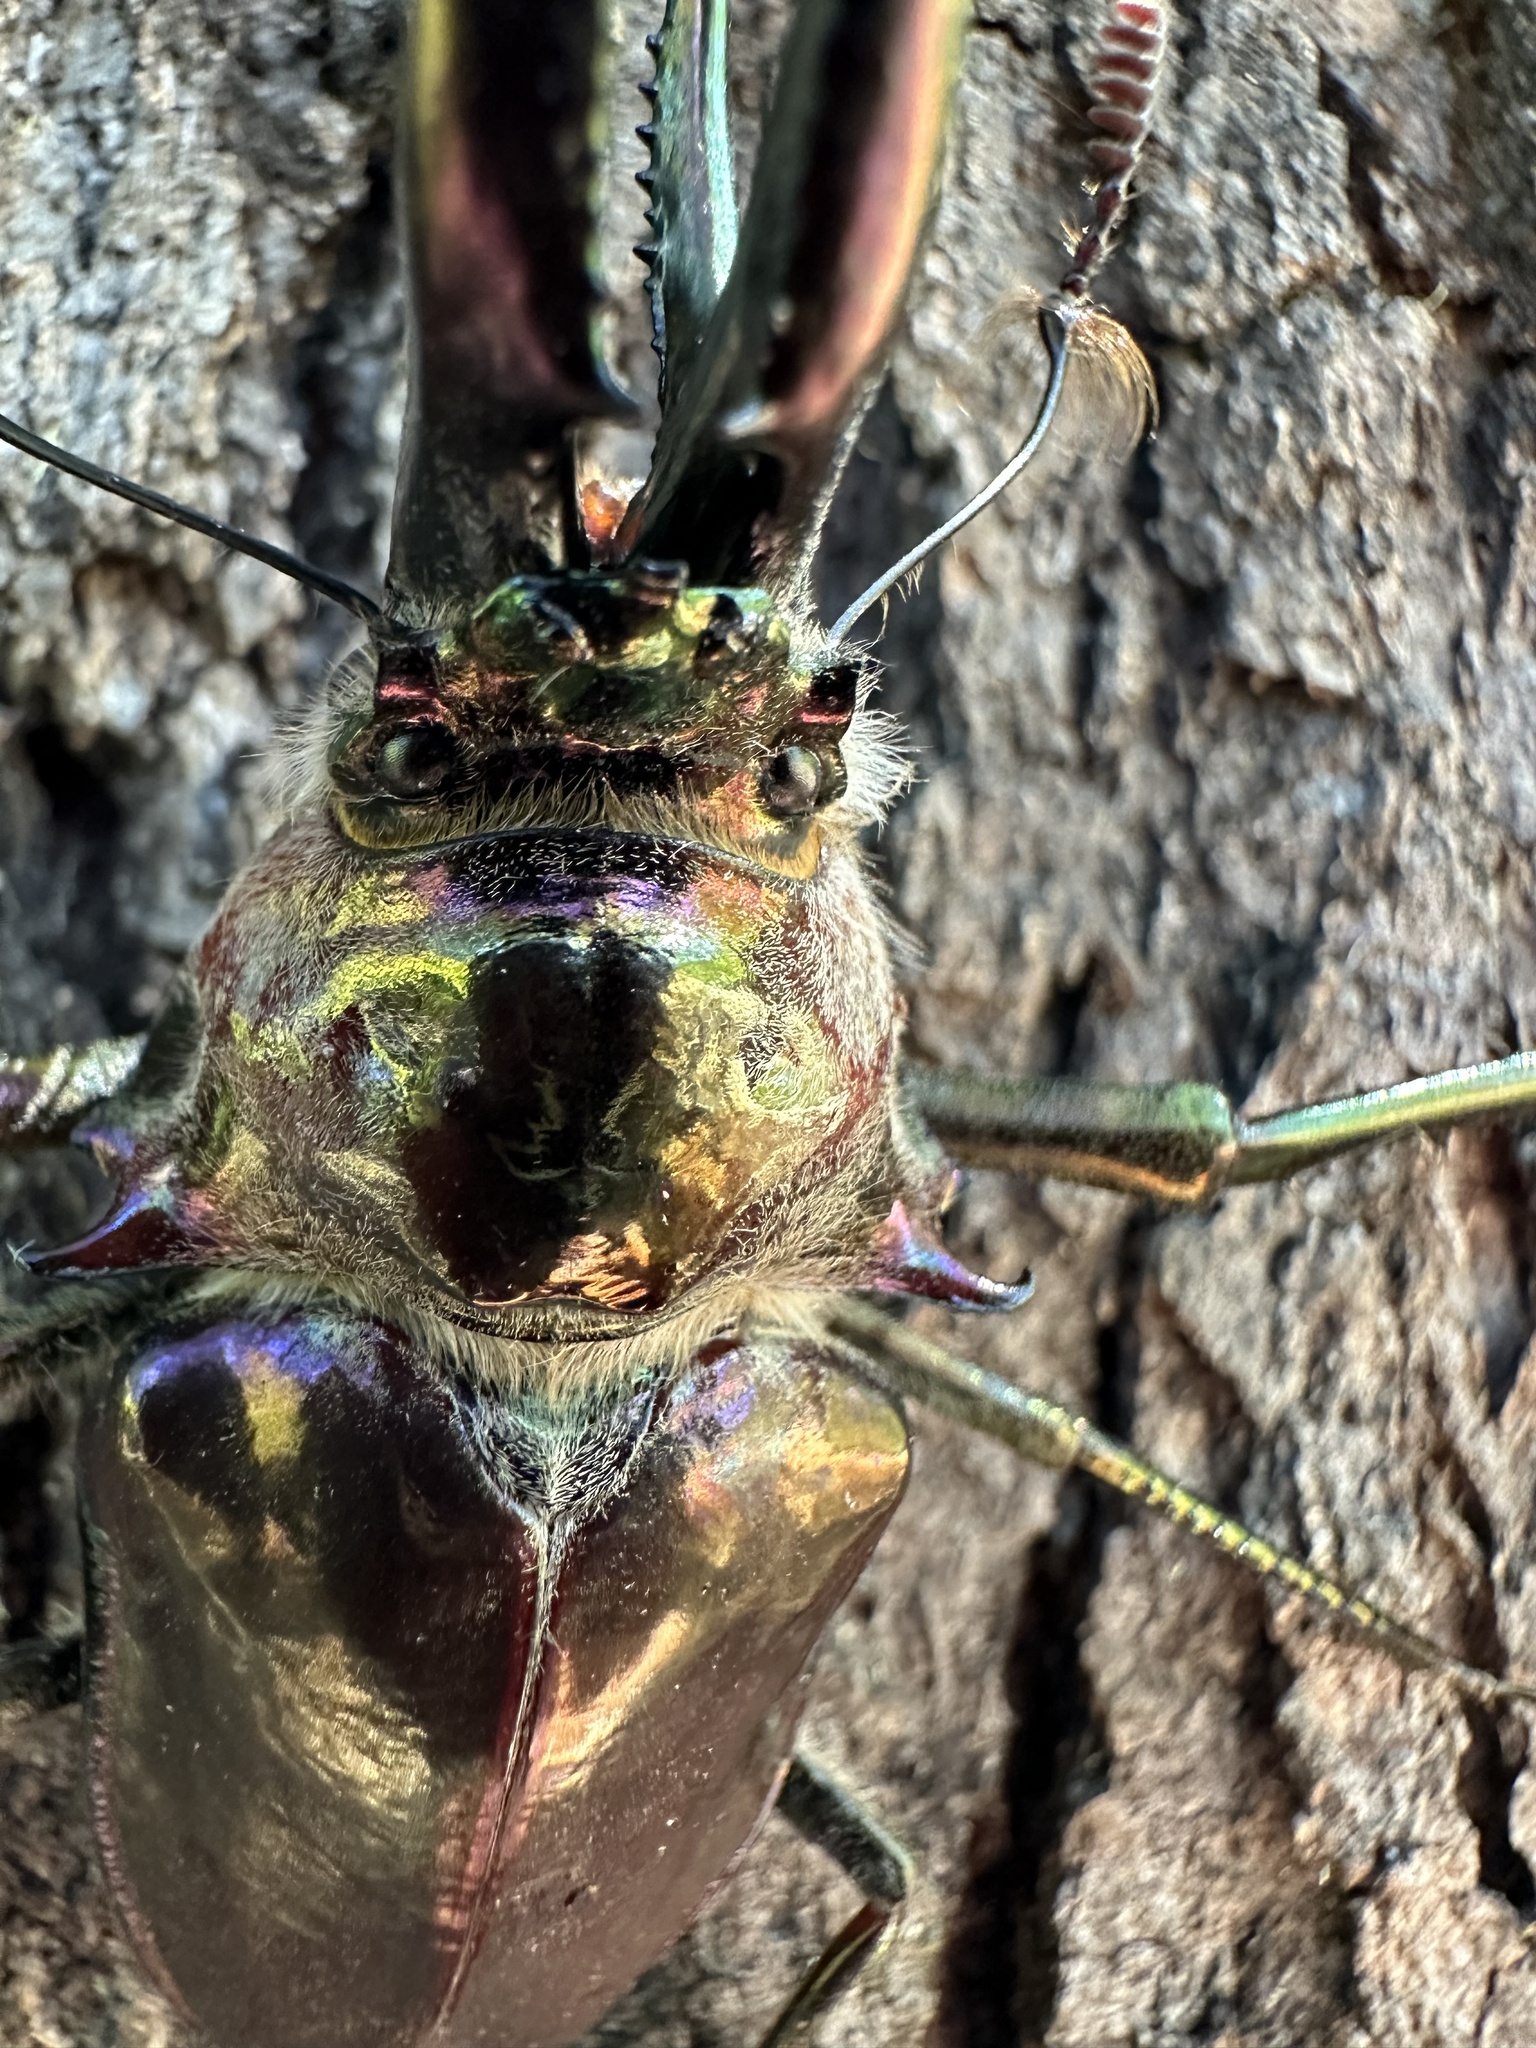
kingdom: Animalia
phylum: Arthropoda
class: Insecta
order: Coleoptera
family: Lucanidae
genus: Chiasognathus
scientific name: Chiasognathus grantii
